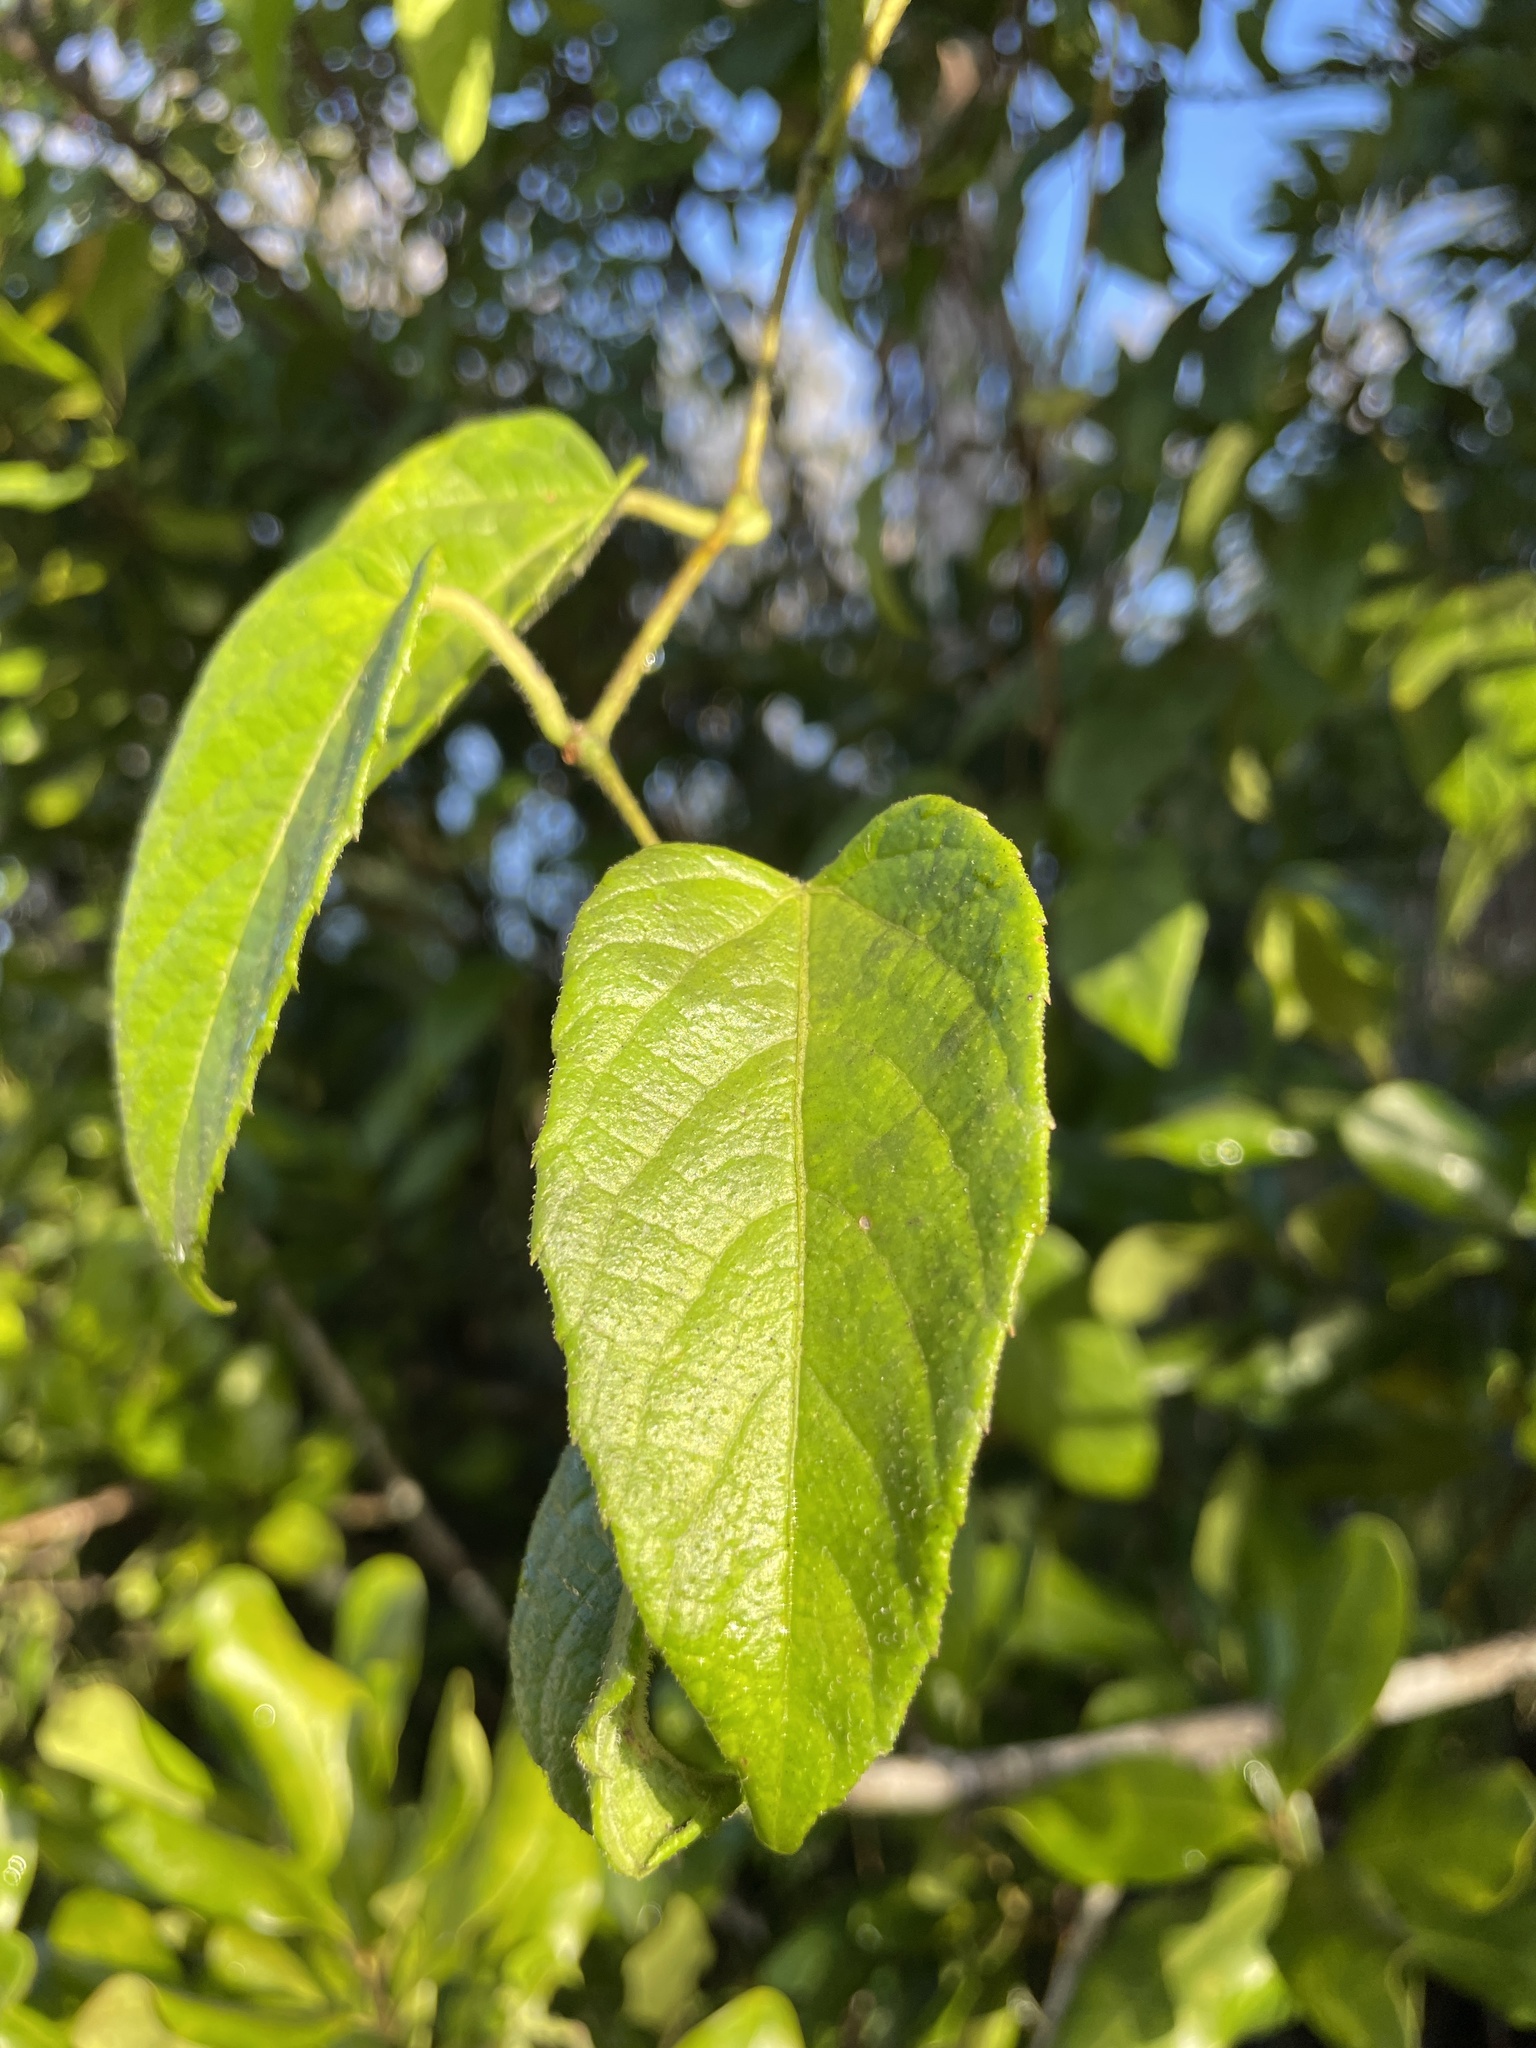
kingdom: Plantae
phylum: Tracheophyta
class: Magnoliopsida
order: Vitales
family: Vitaceae
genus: Cissus
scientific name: Cissus verticillata
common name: Princess vine
